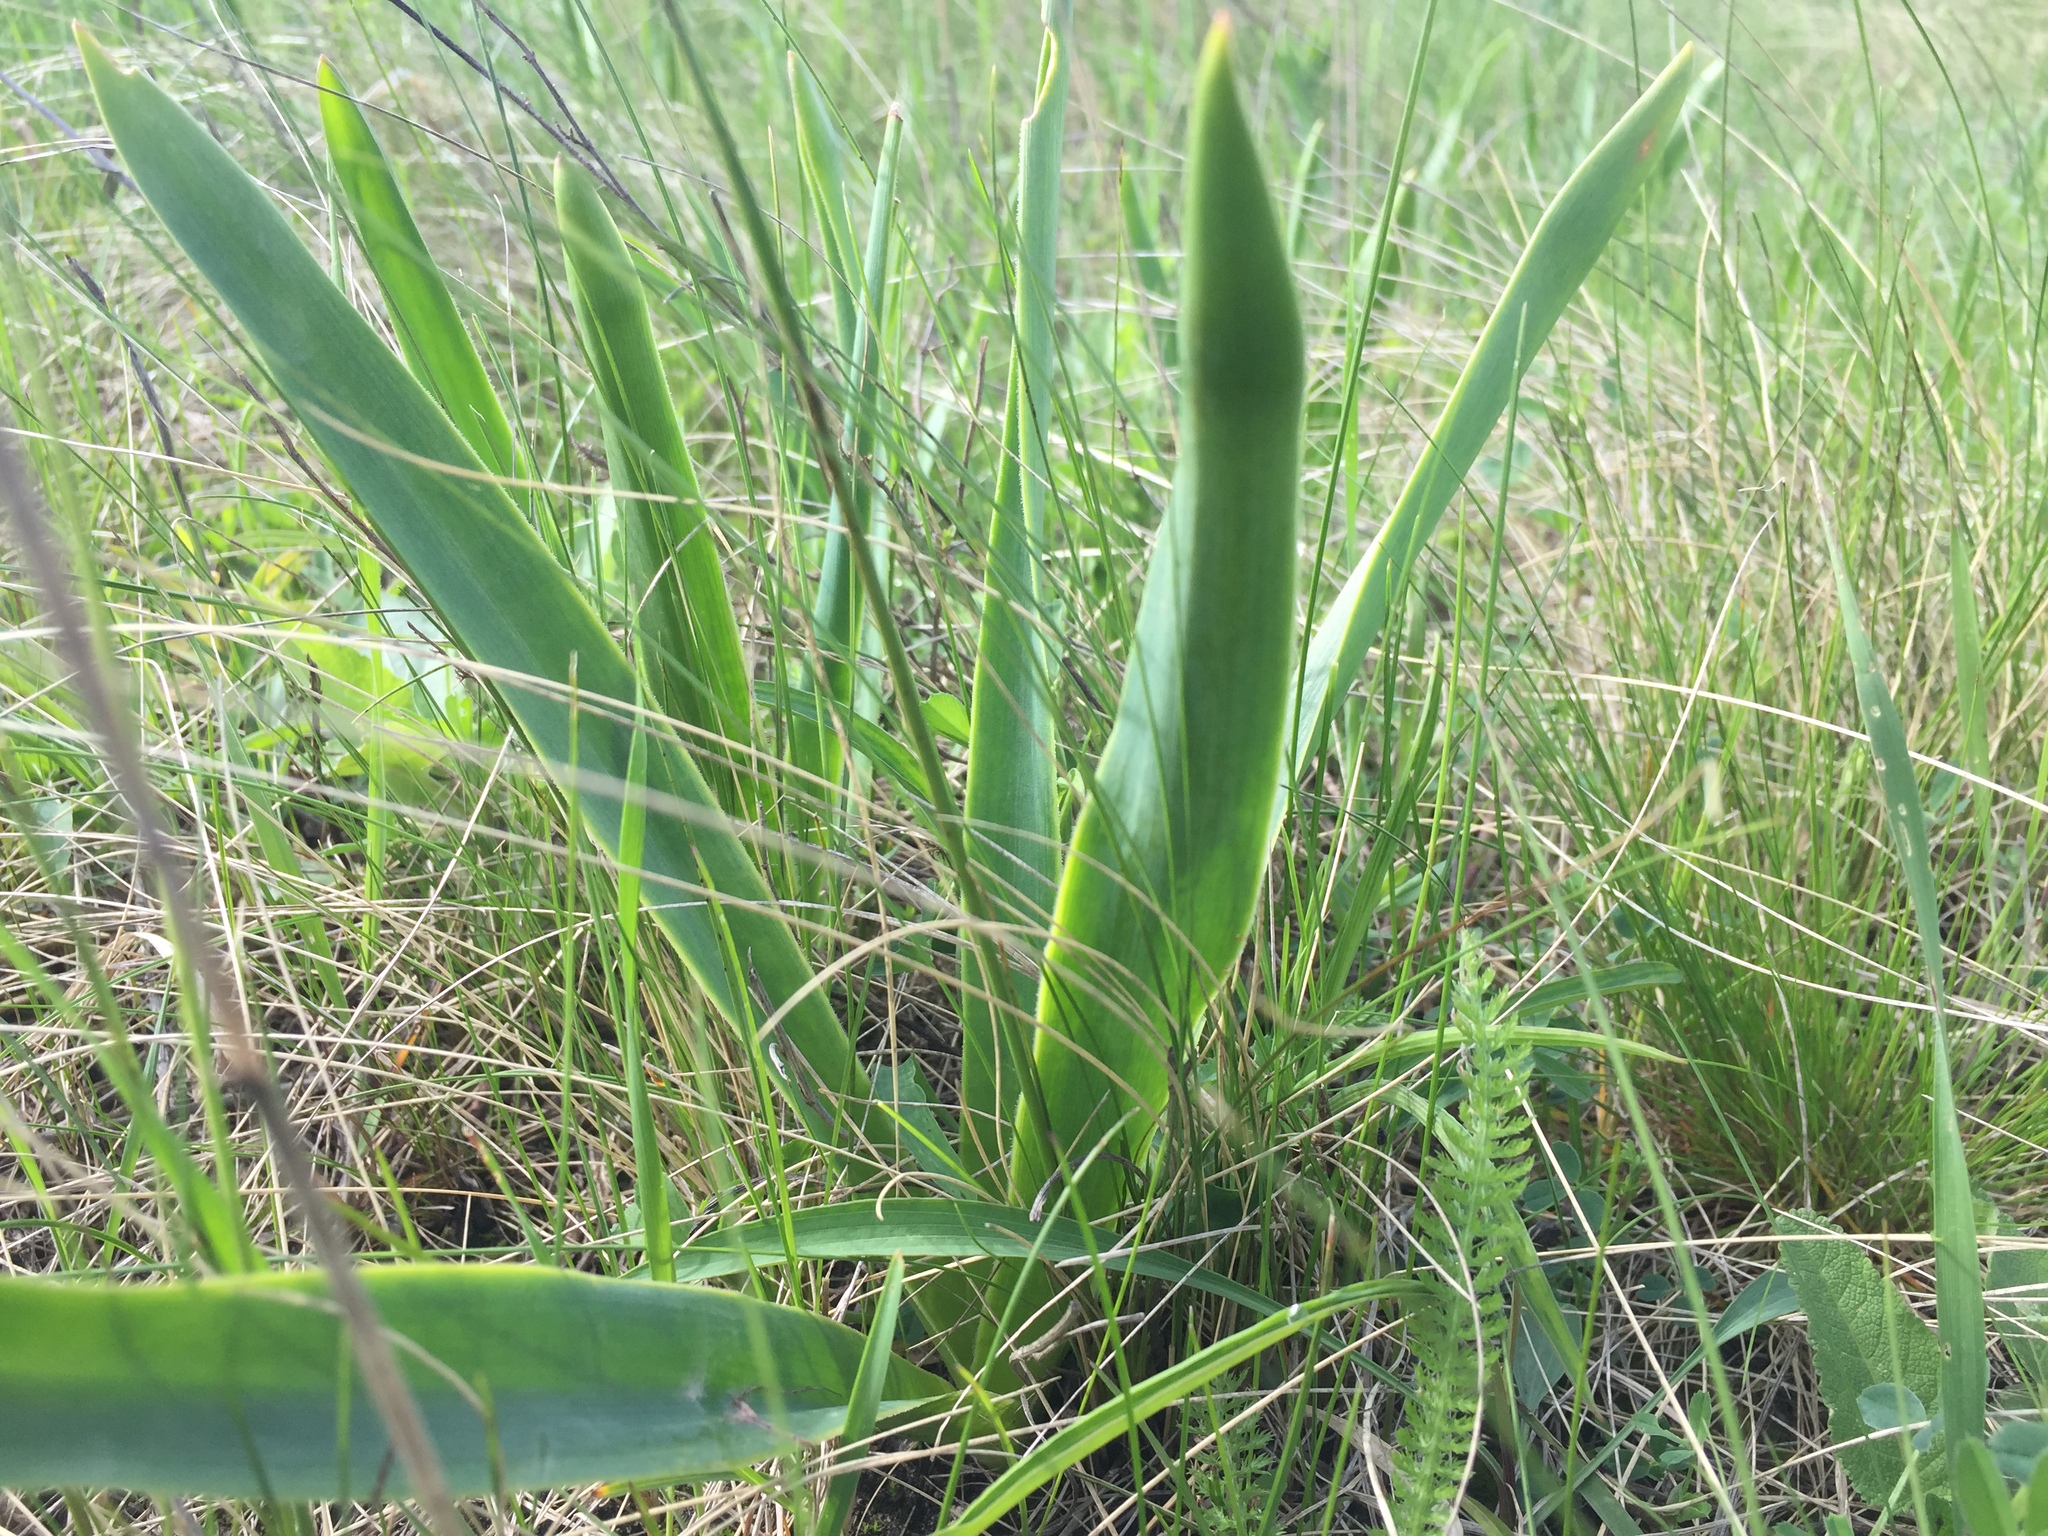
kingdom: Plantae
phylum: Tracheophyta
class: Liliopsida
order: Asparagales
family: Asparagaceae
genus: Bellevalia
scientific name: Bellevalia speciosa
